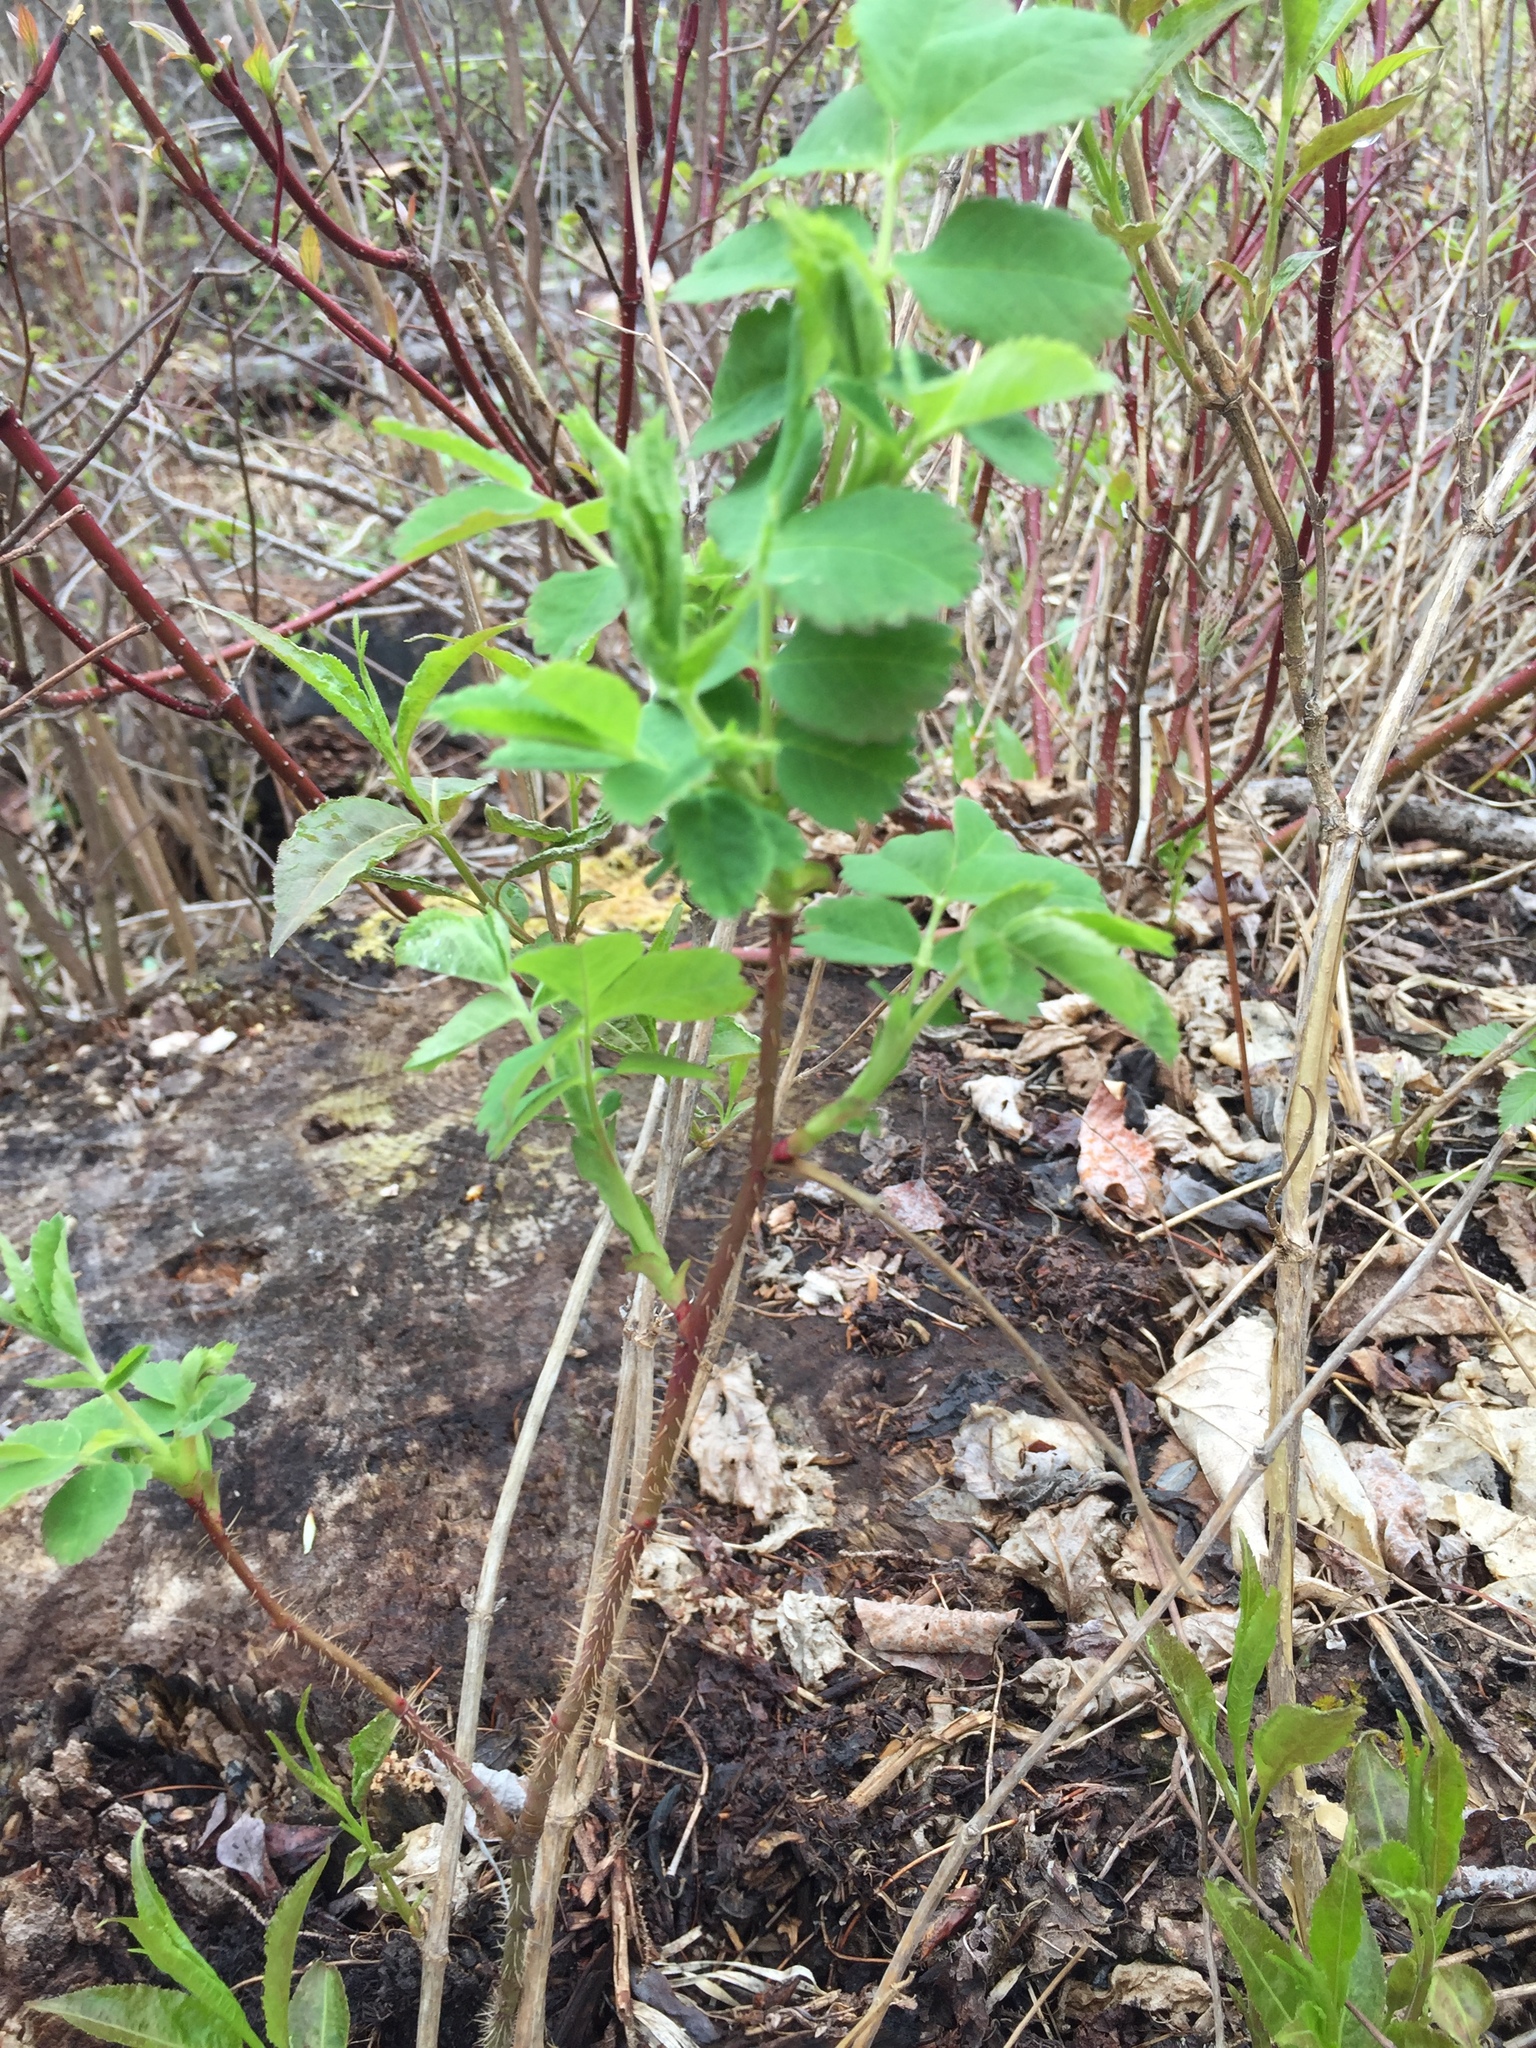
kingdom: Plantae
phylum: Tracheophyta
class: Magnoliopsida
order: Rosales
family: Rosaceae
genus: Rosa
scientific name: Rosa acicularis
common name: Prickly rose
